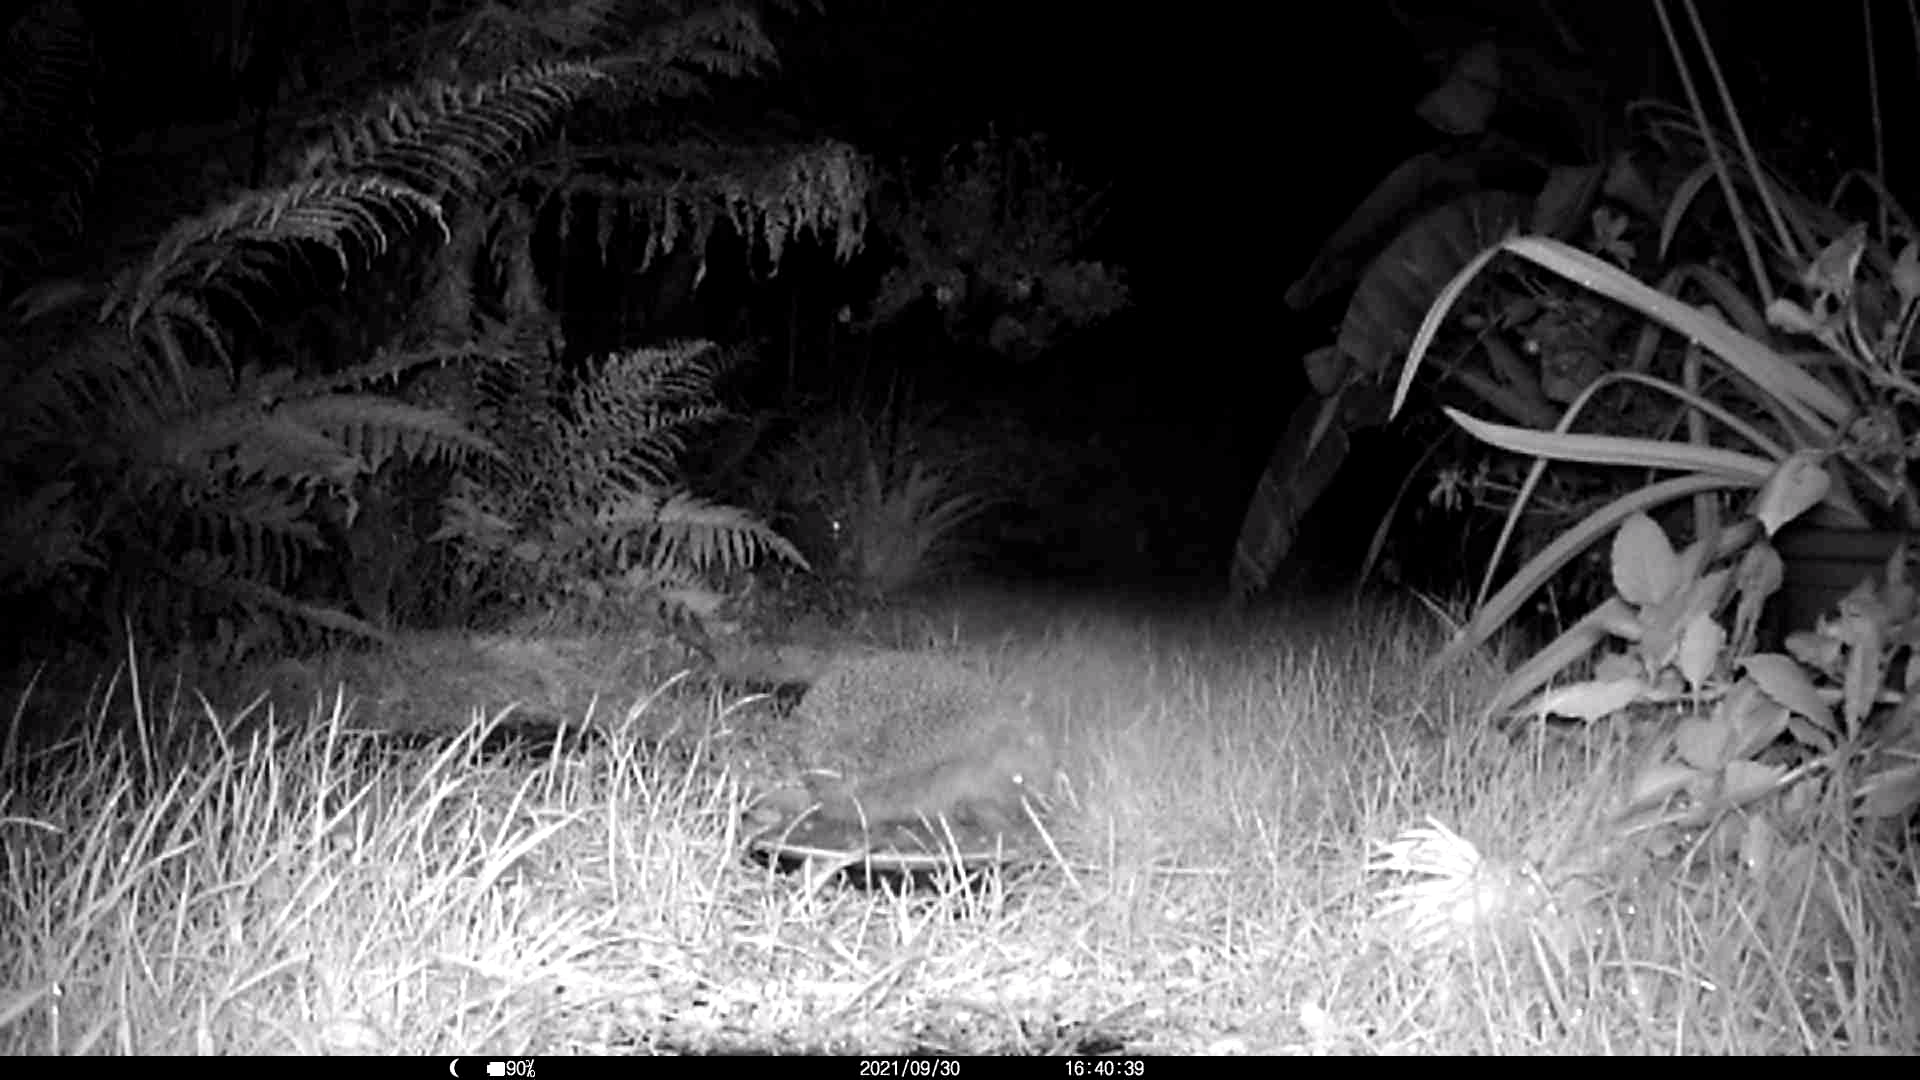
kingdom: Animalia
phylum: Chordata
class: Mammalia
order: Erinaceomorpha
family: Erinaceidae
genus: Erinaceus
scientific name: Erinaceus europaeus
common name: West european hedgehog
